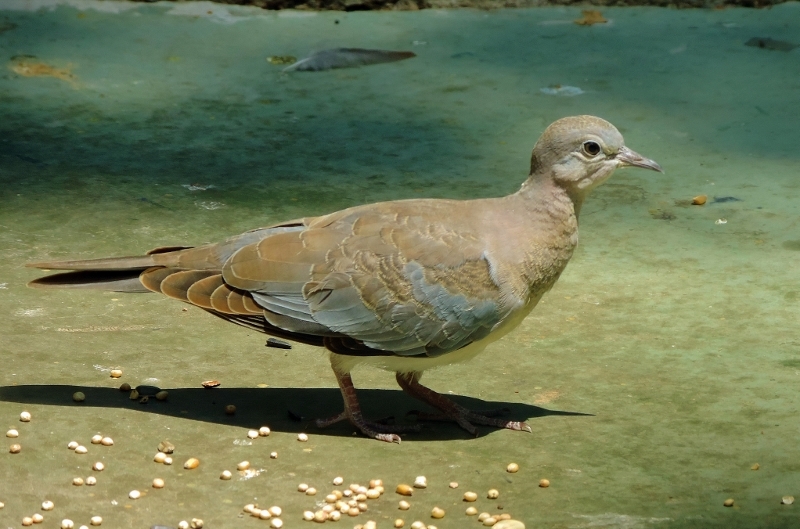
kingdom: Animalia
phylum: Chordata
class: Aves
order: Columbiformes
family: Columbidae
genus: Spilopelia
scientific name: Spilopelia senegalensis
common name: Laughing dove
